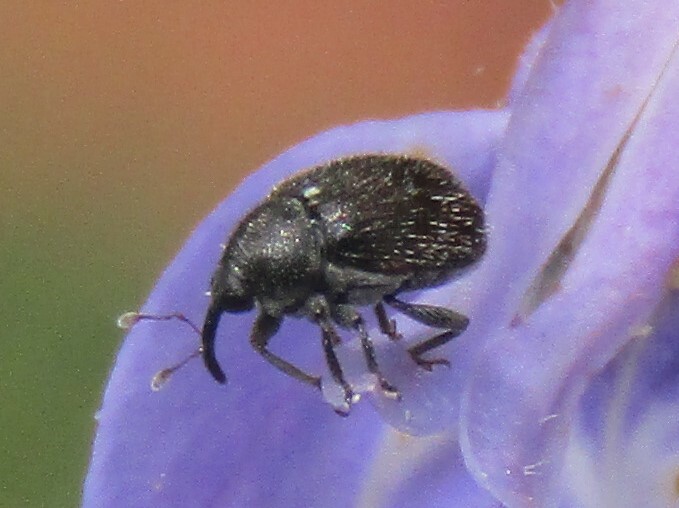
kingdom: Animalia
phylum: Arthropoda
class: Insecta
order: Coleoptera
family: Curculionidae
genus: Miarus
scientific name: Miarus hispidulus
